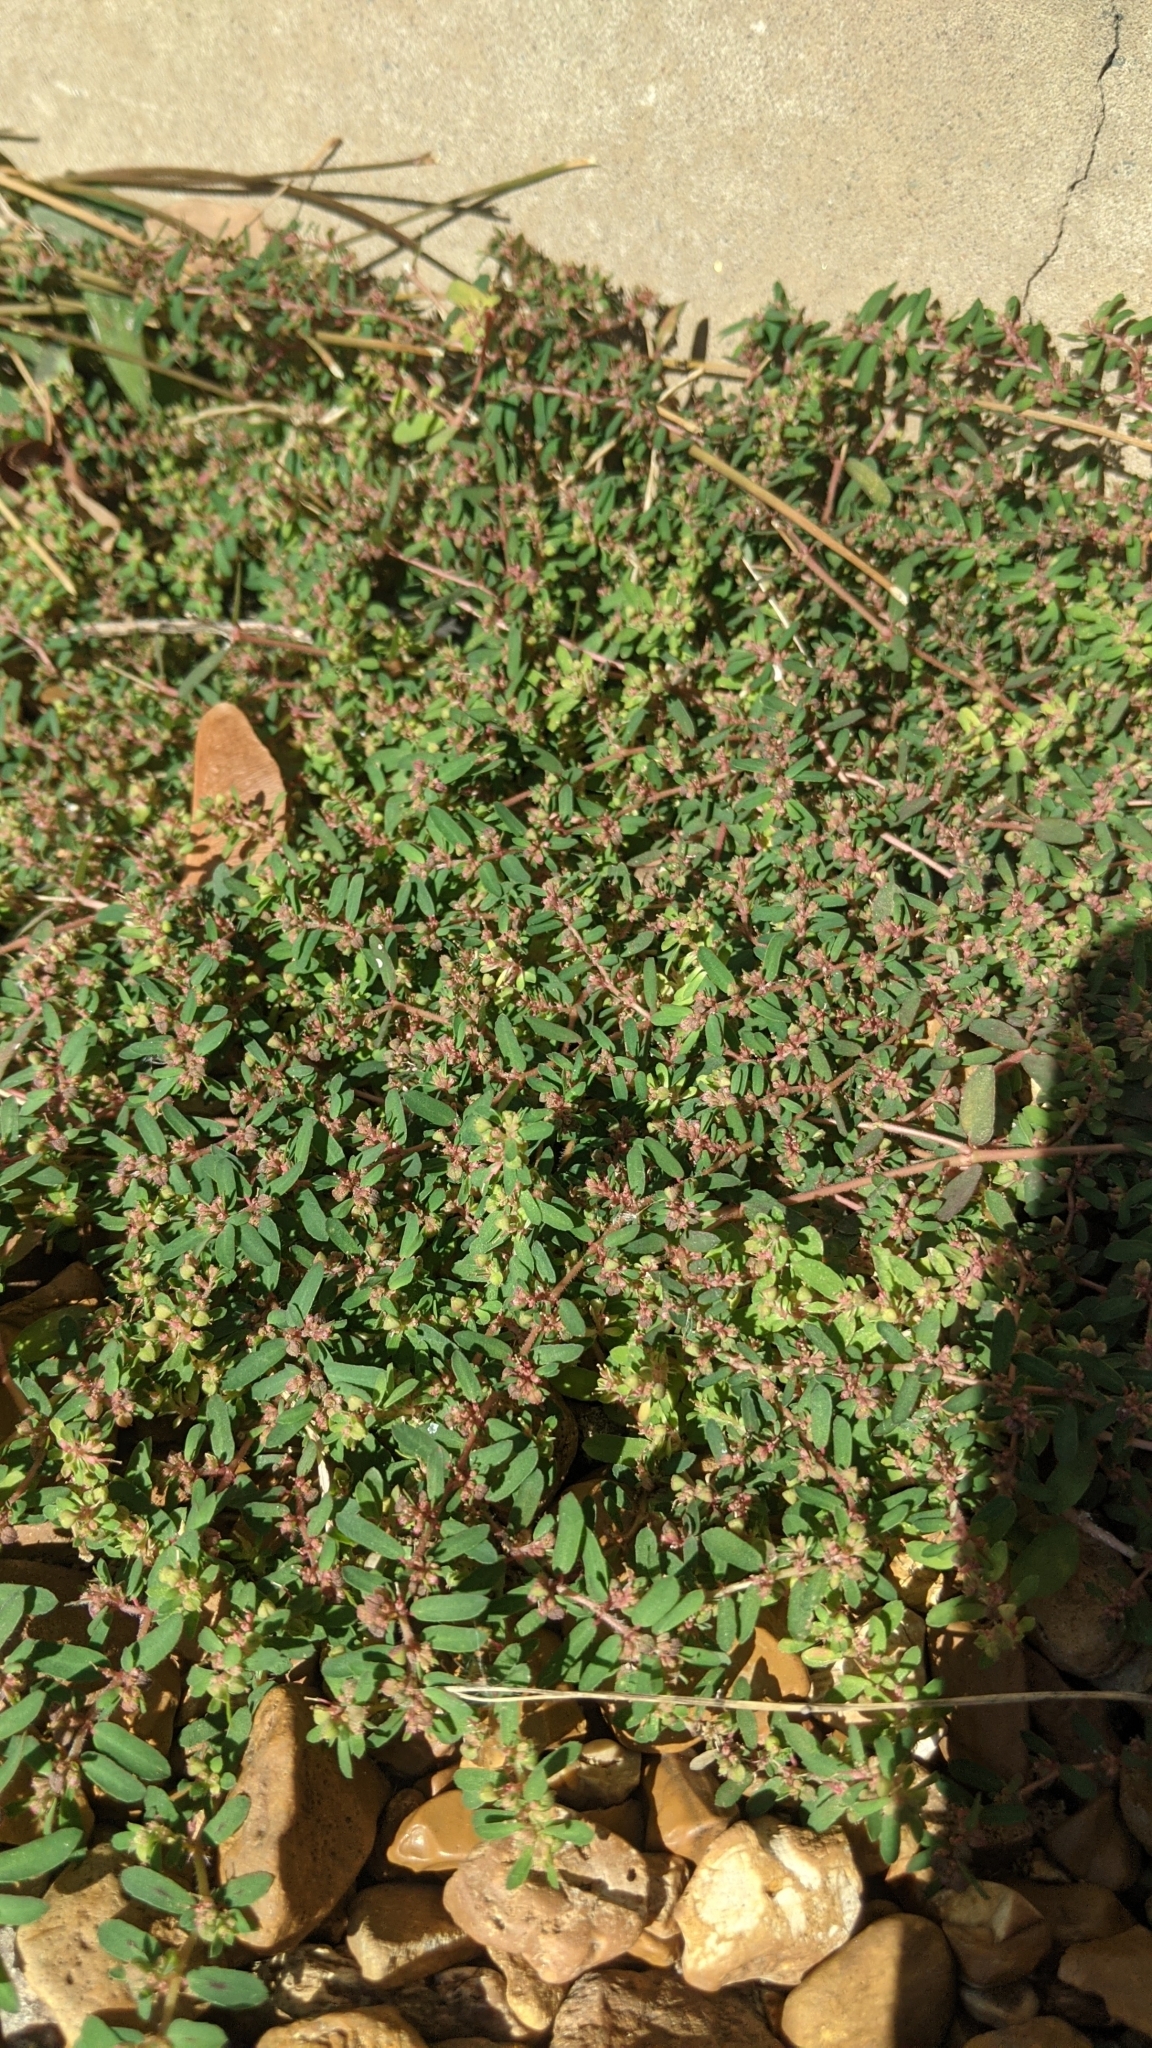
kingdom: Plantae
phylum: Tracheophyta
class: Magnoliopsida
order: Malpighiales
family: Euphorbiaceae
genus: Euphorbia
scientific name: Euphorbia maculata
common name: Spotted spurge
